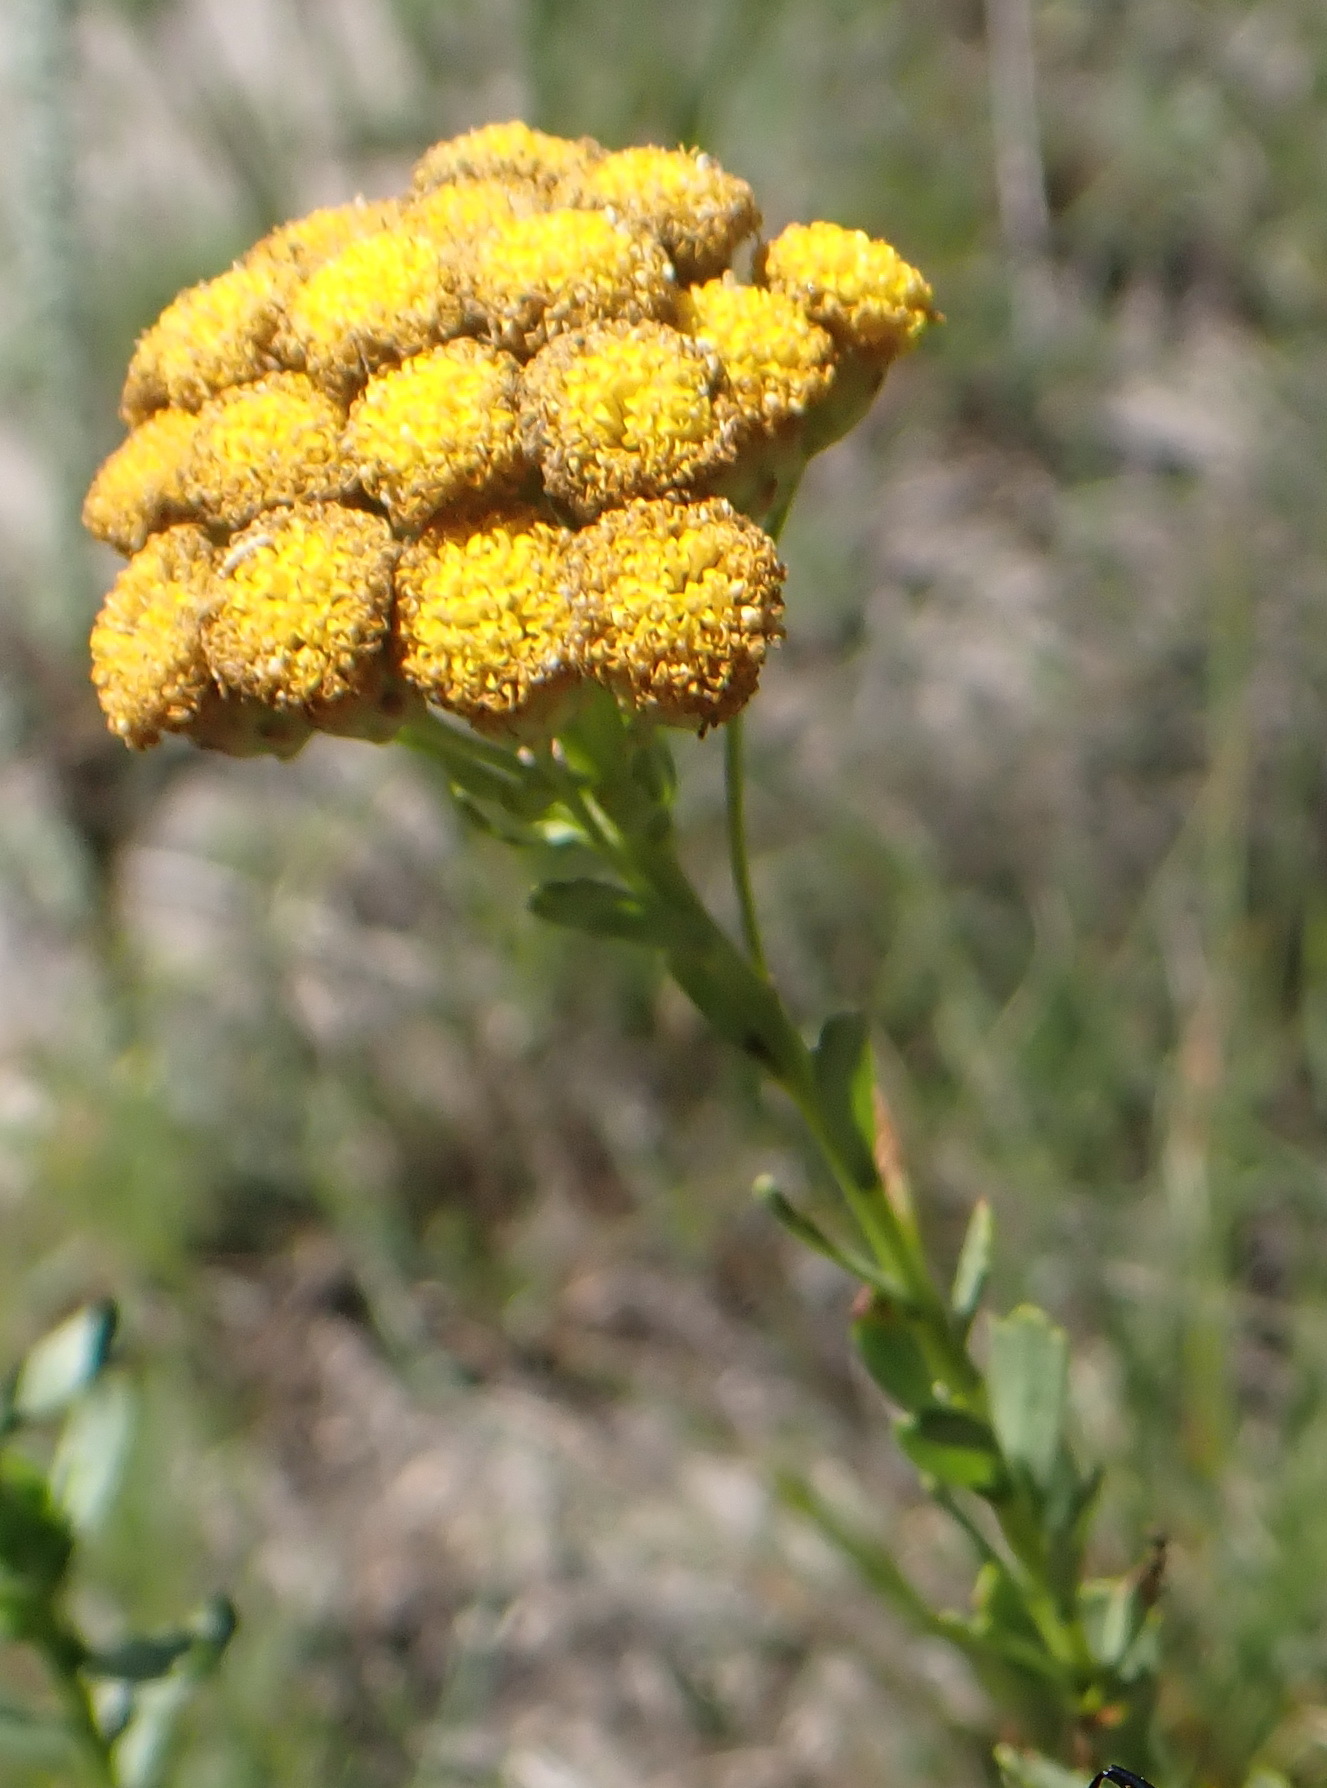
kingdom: Plantae
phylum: Tracheophyta
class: Magnoliopsida
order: Asterales
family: Asteraceae
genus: Athanasia
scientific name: Athanasia trifurcata
